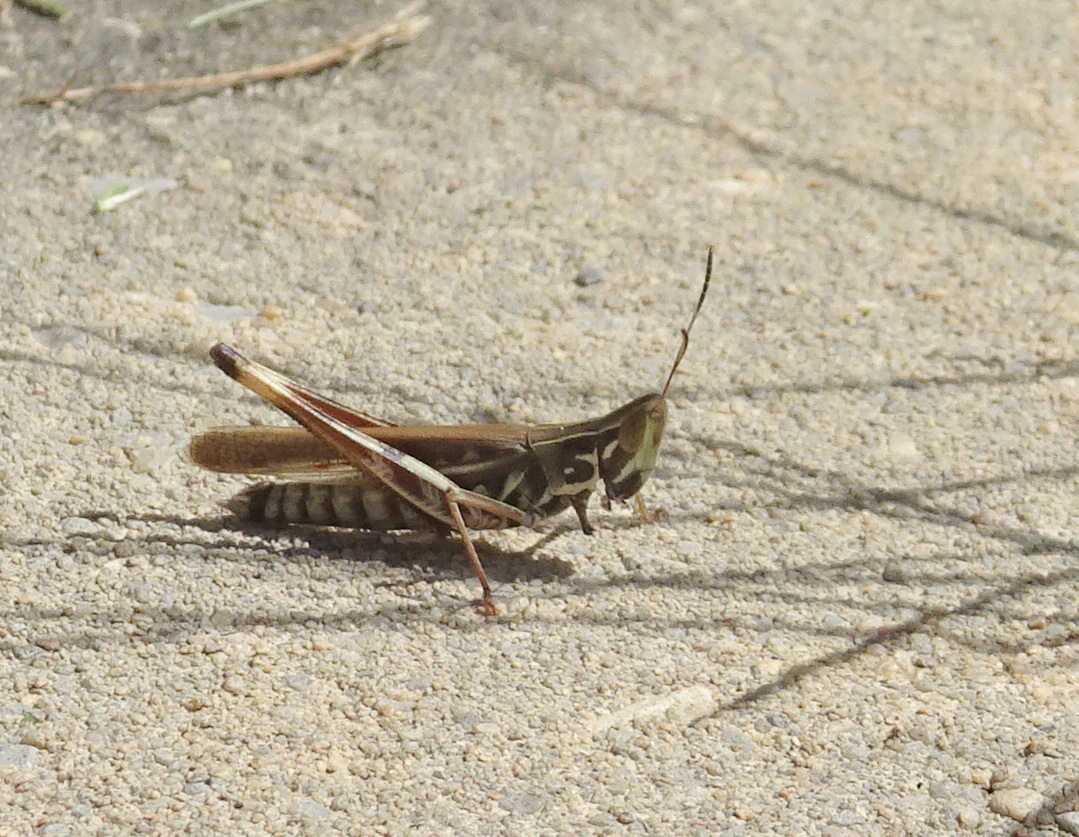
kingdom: Animalia
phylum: Arthropoda
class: Insecta
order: Orthoptera
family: Acrididae
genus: Syrbula
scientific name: Syrbula admirabilis
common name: Handsome grasshopper
